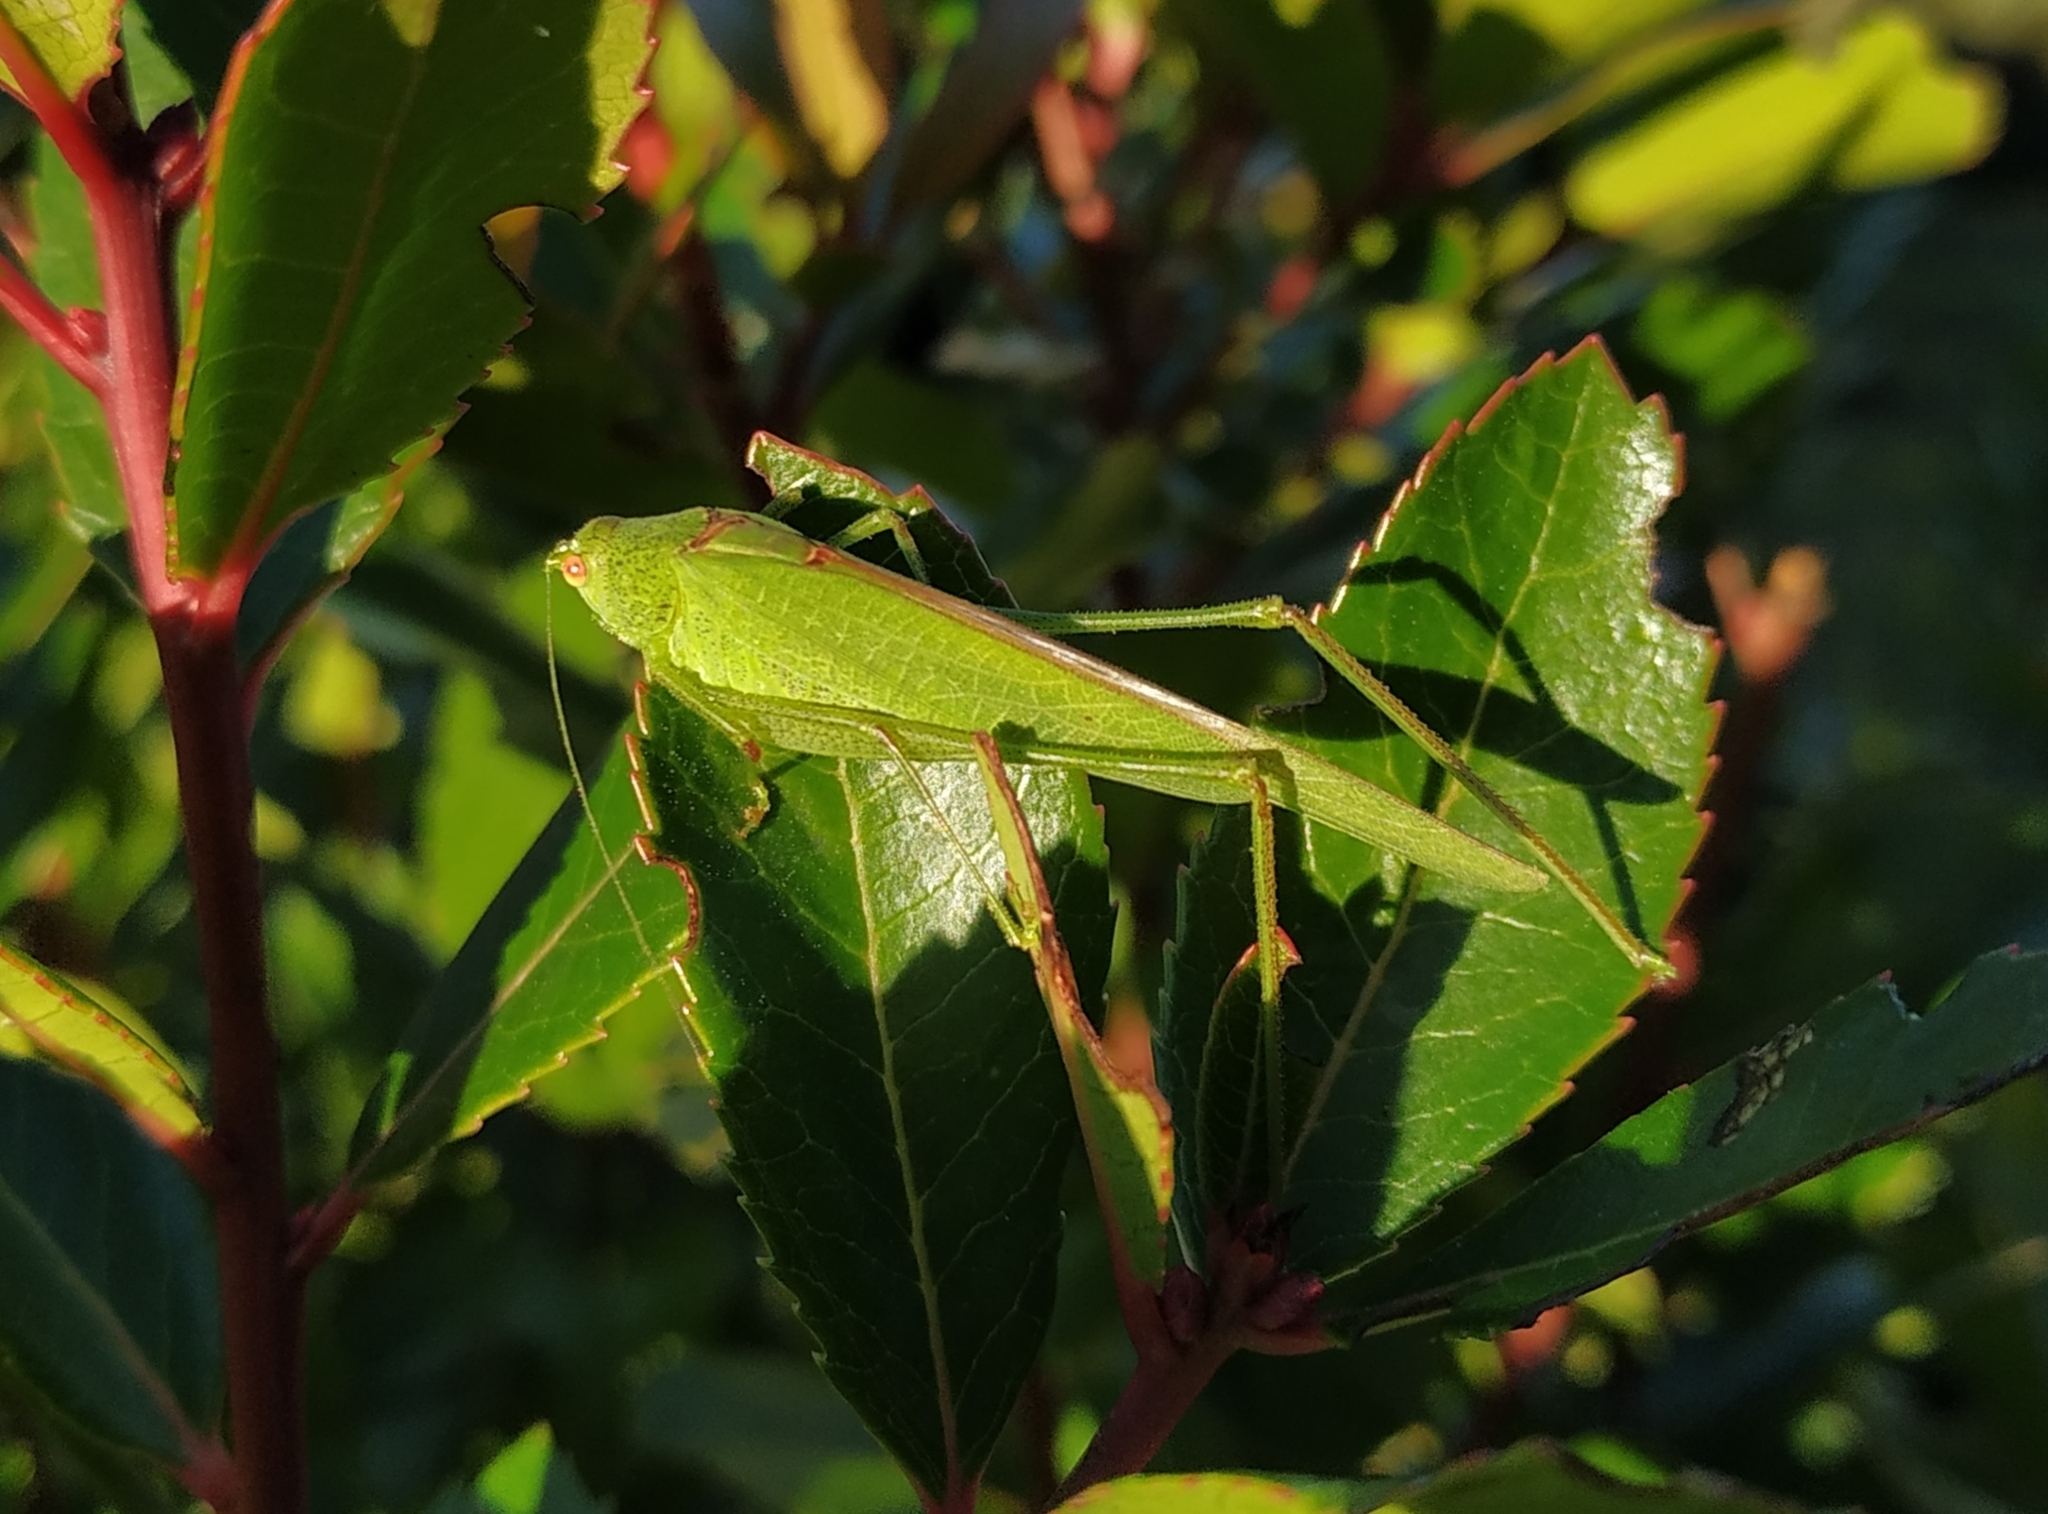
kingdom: Animalia
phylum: Arthropoda
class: Insecta
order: Orthoptera
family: Tettigoniidae
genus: Phaneroptera
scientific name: Phaneroptera nana
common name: Southern sickle bush-cricket
